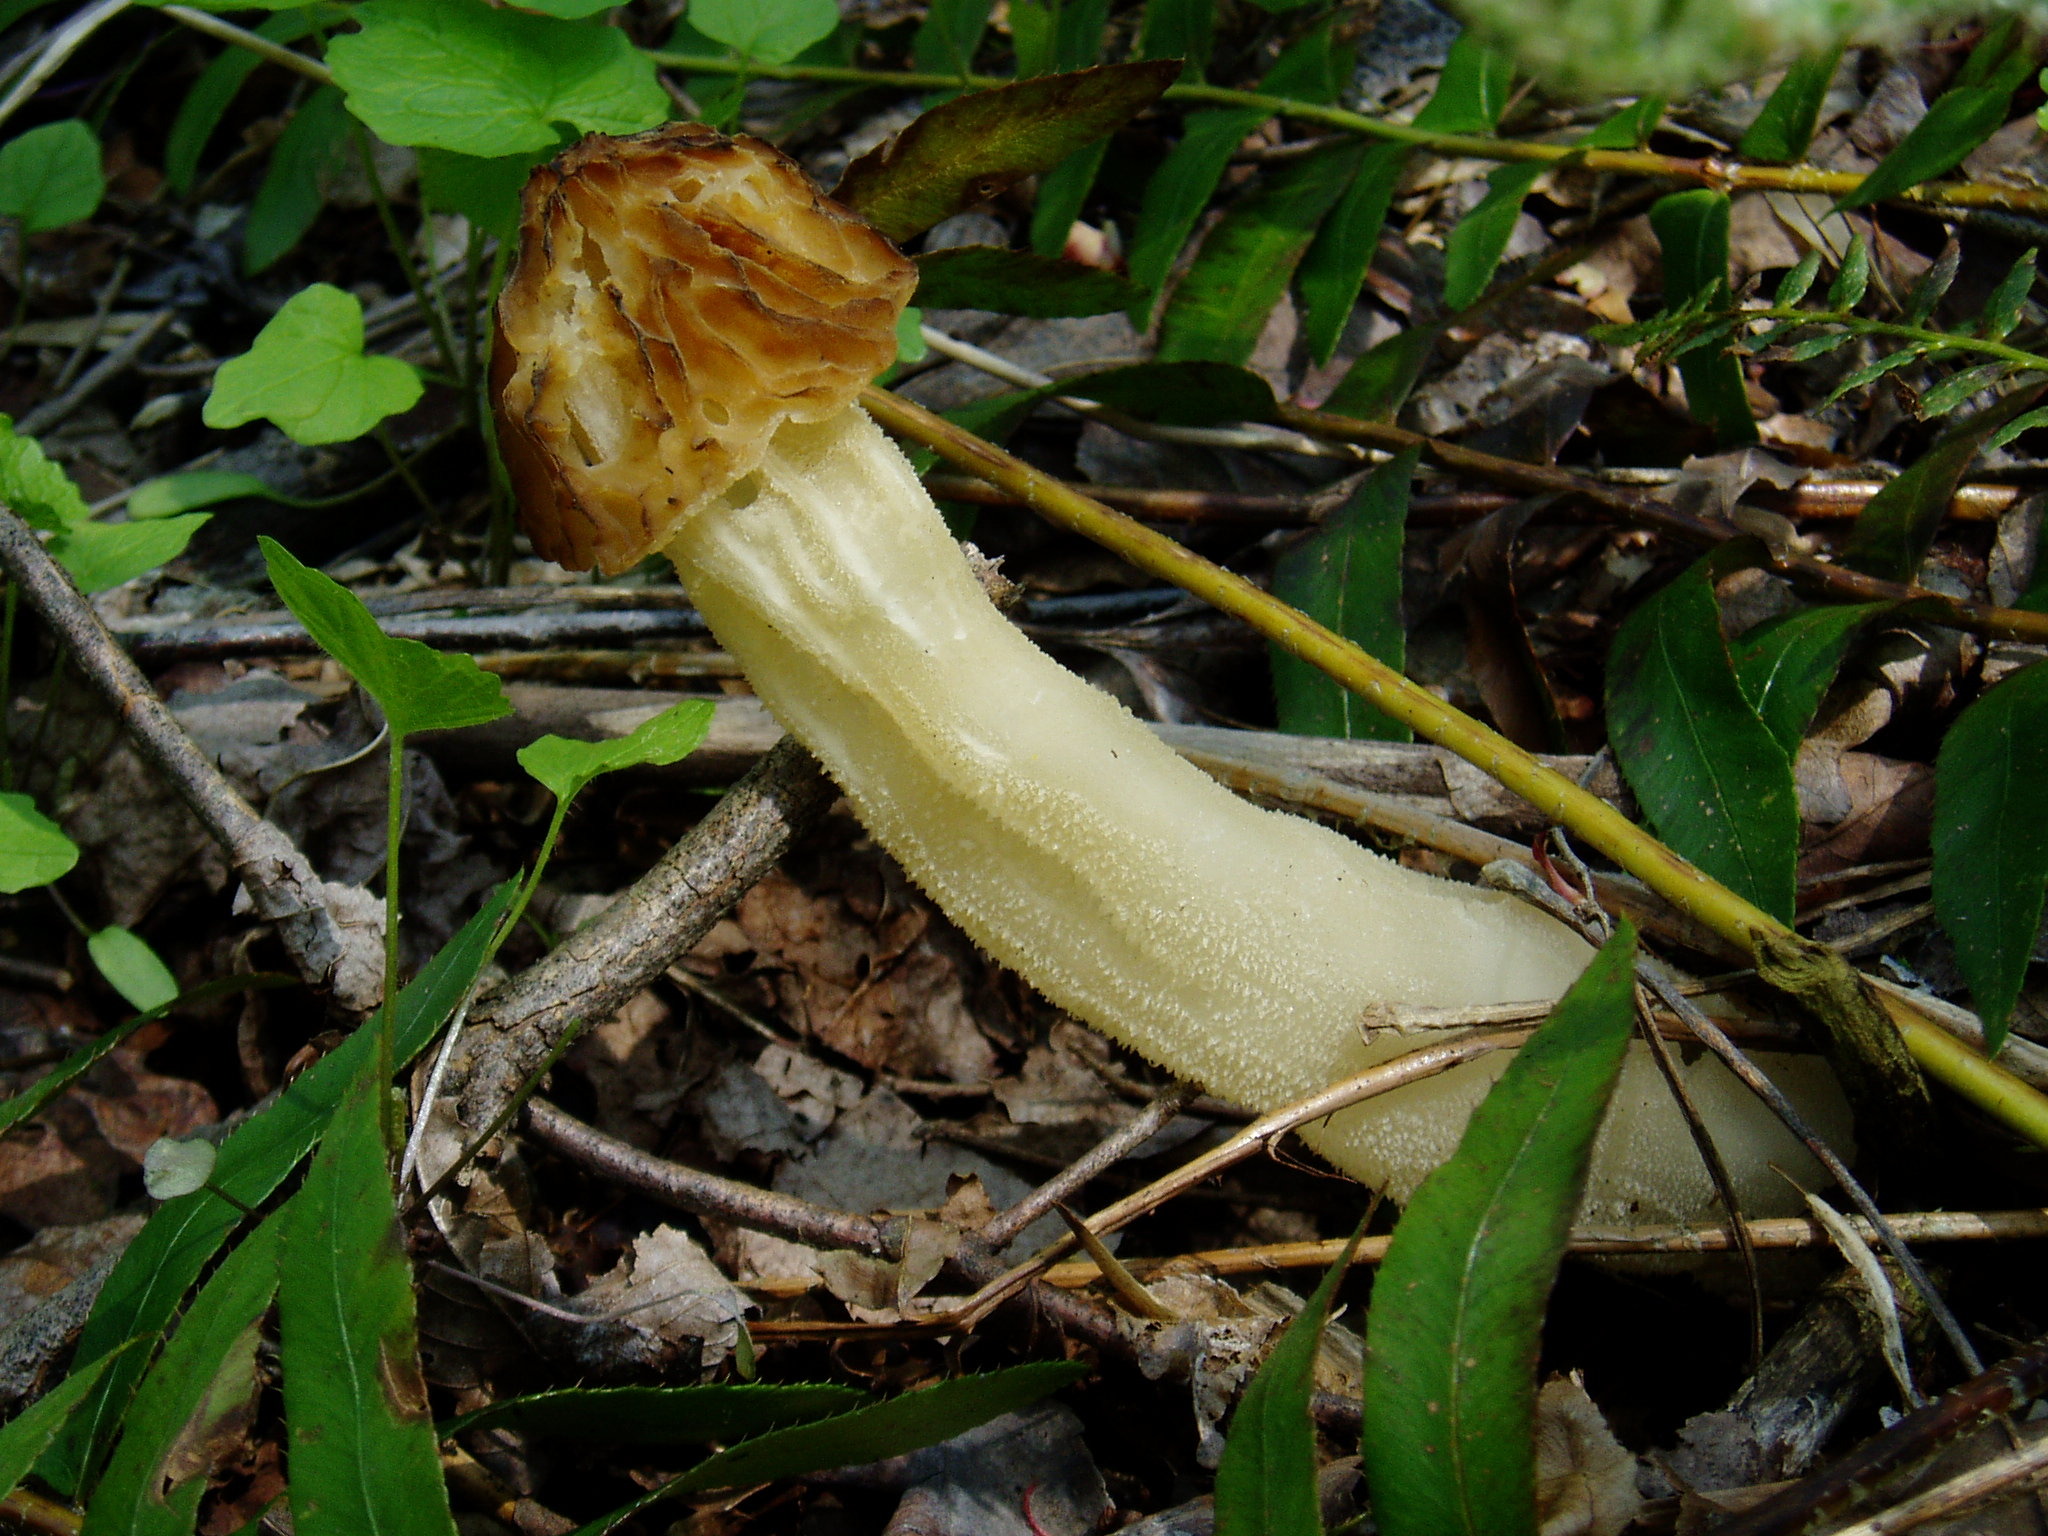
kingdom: Fungi
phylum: Ascomycota
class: Pezizomycetes
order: Pezizales
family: Morchellaceae
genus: Morchella
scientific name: Morchella punctipes
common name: Half-free morel
